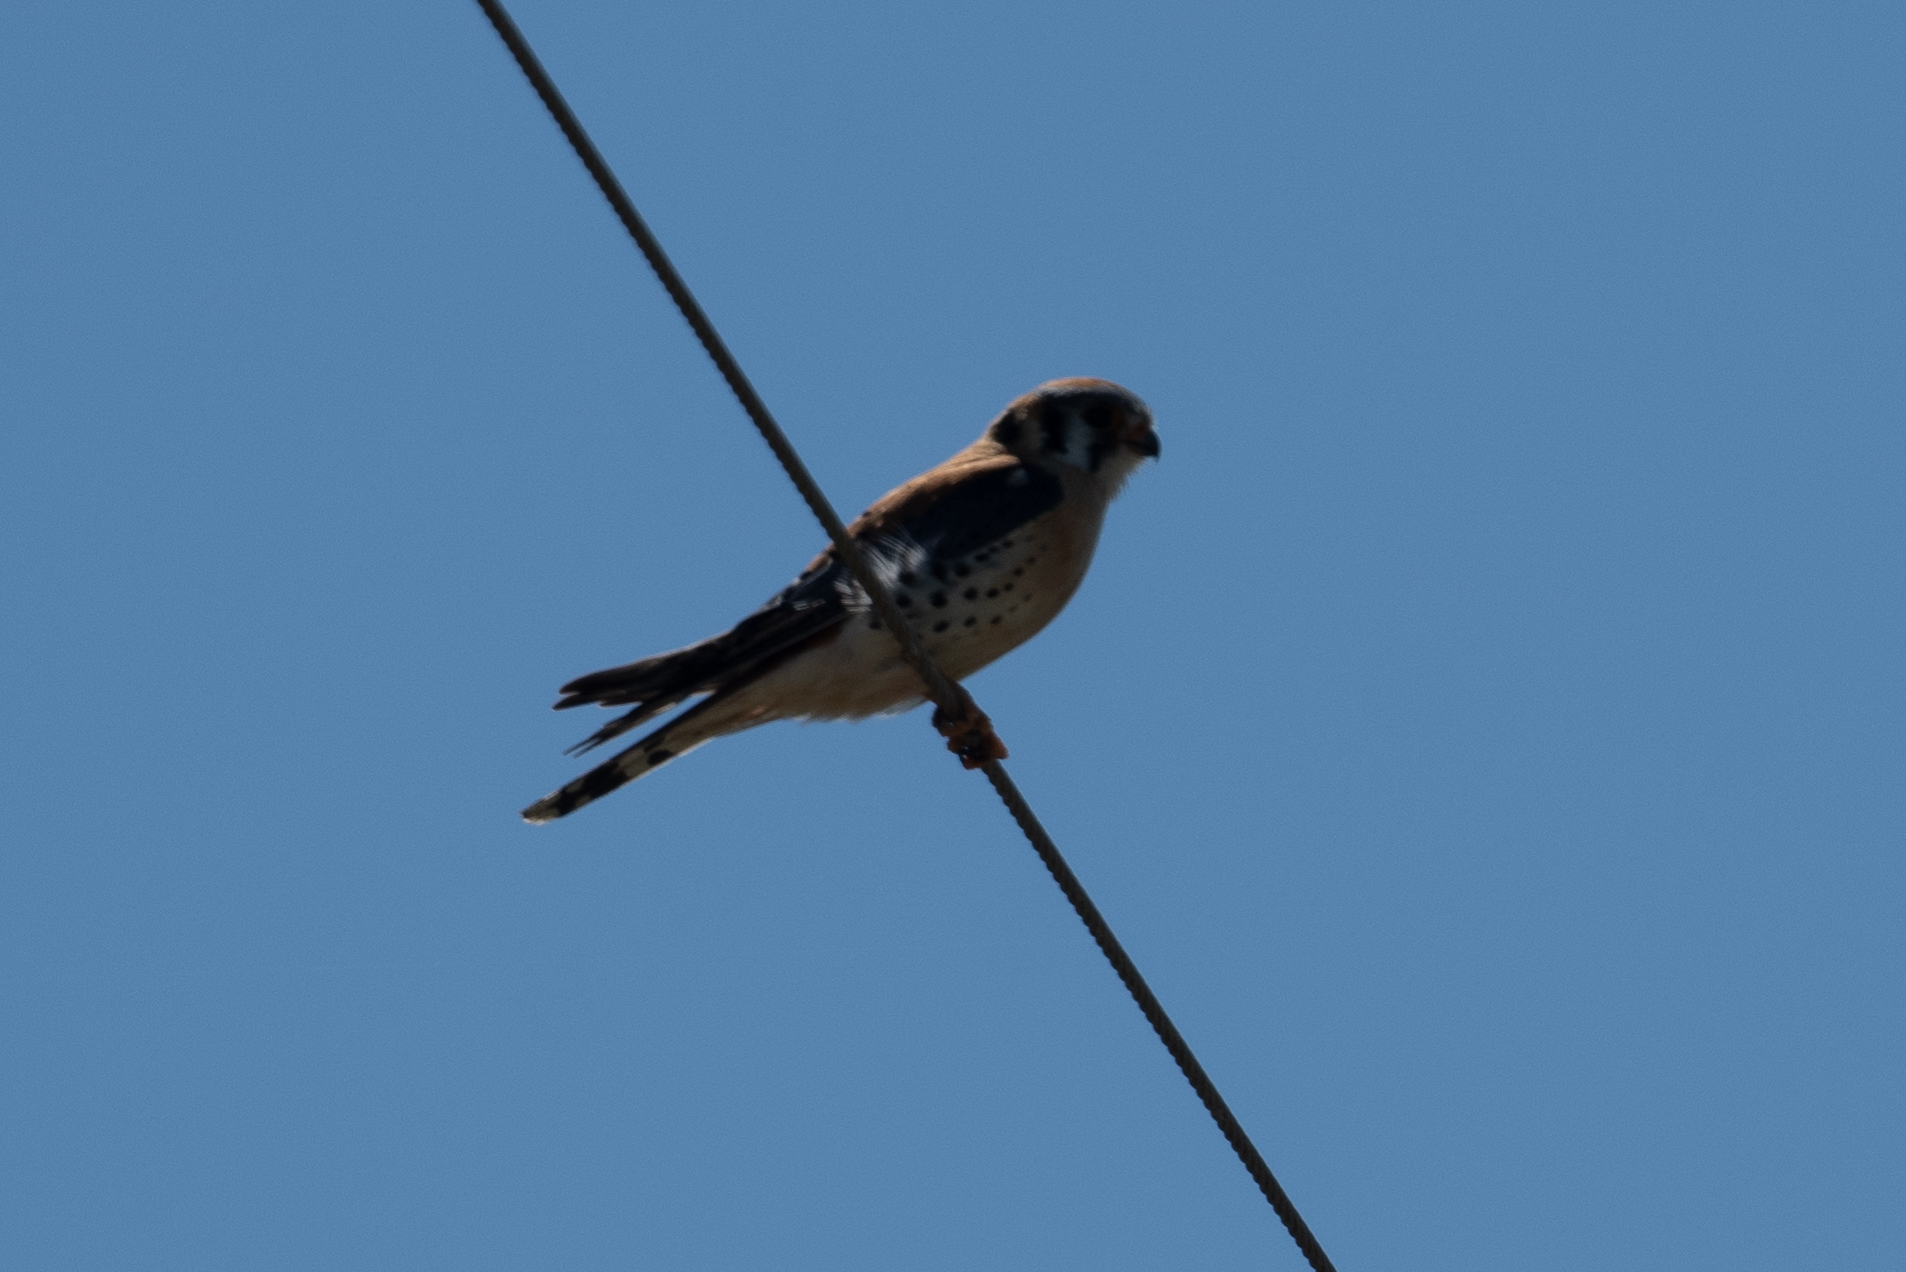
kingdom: Animalia
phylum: Chordata
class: Aves
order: Falconiformes
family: Falconidae
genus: Falco
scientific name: Falco sparverius
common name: American kestrel
